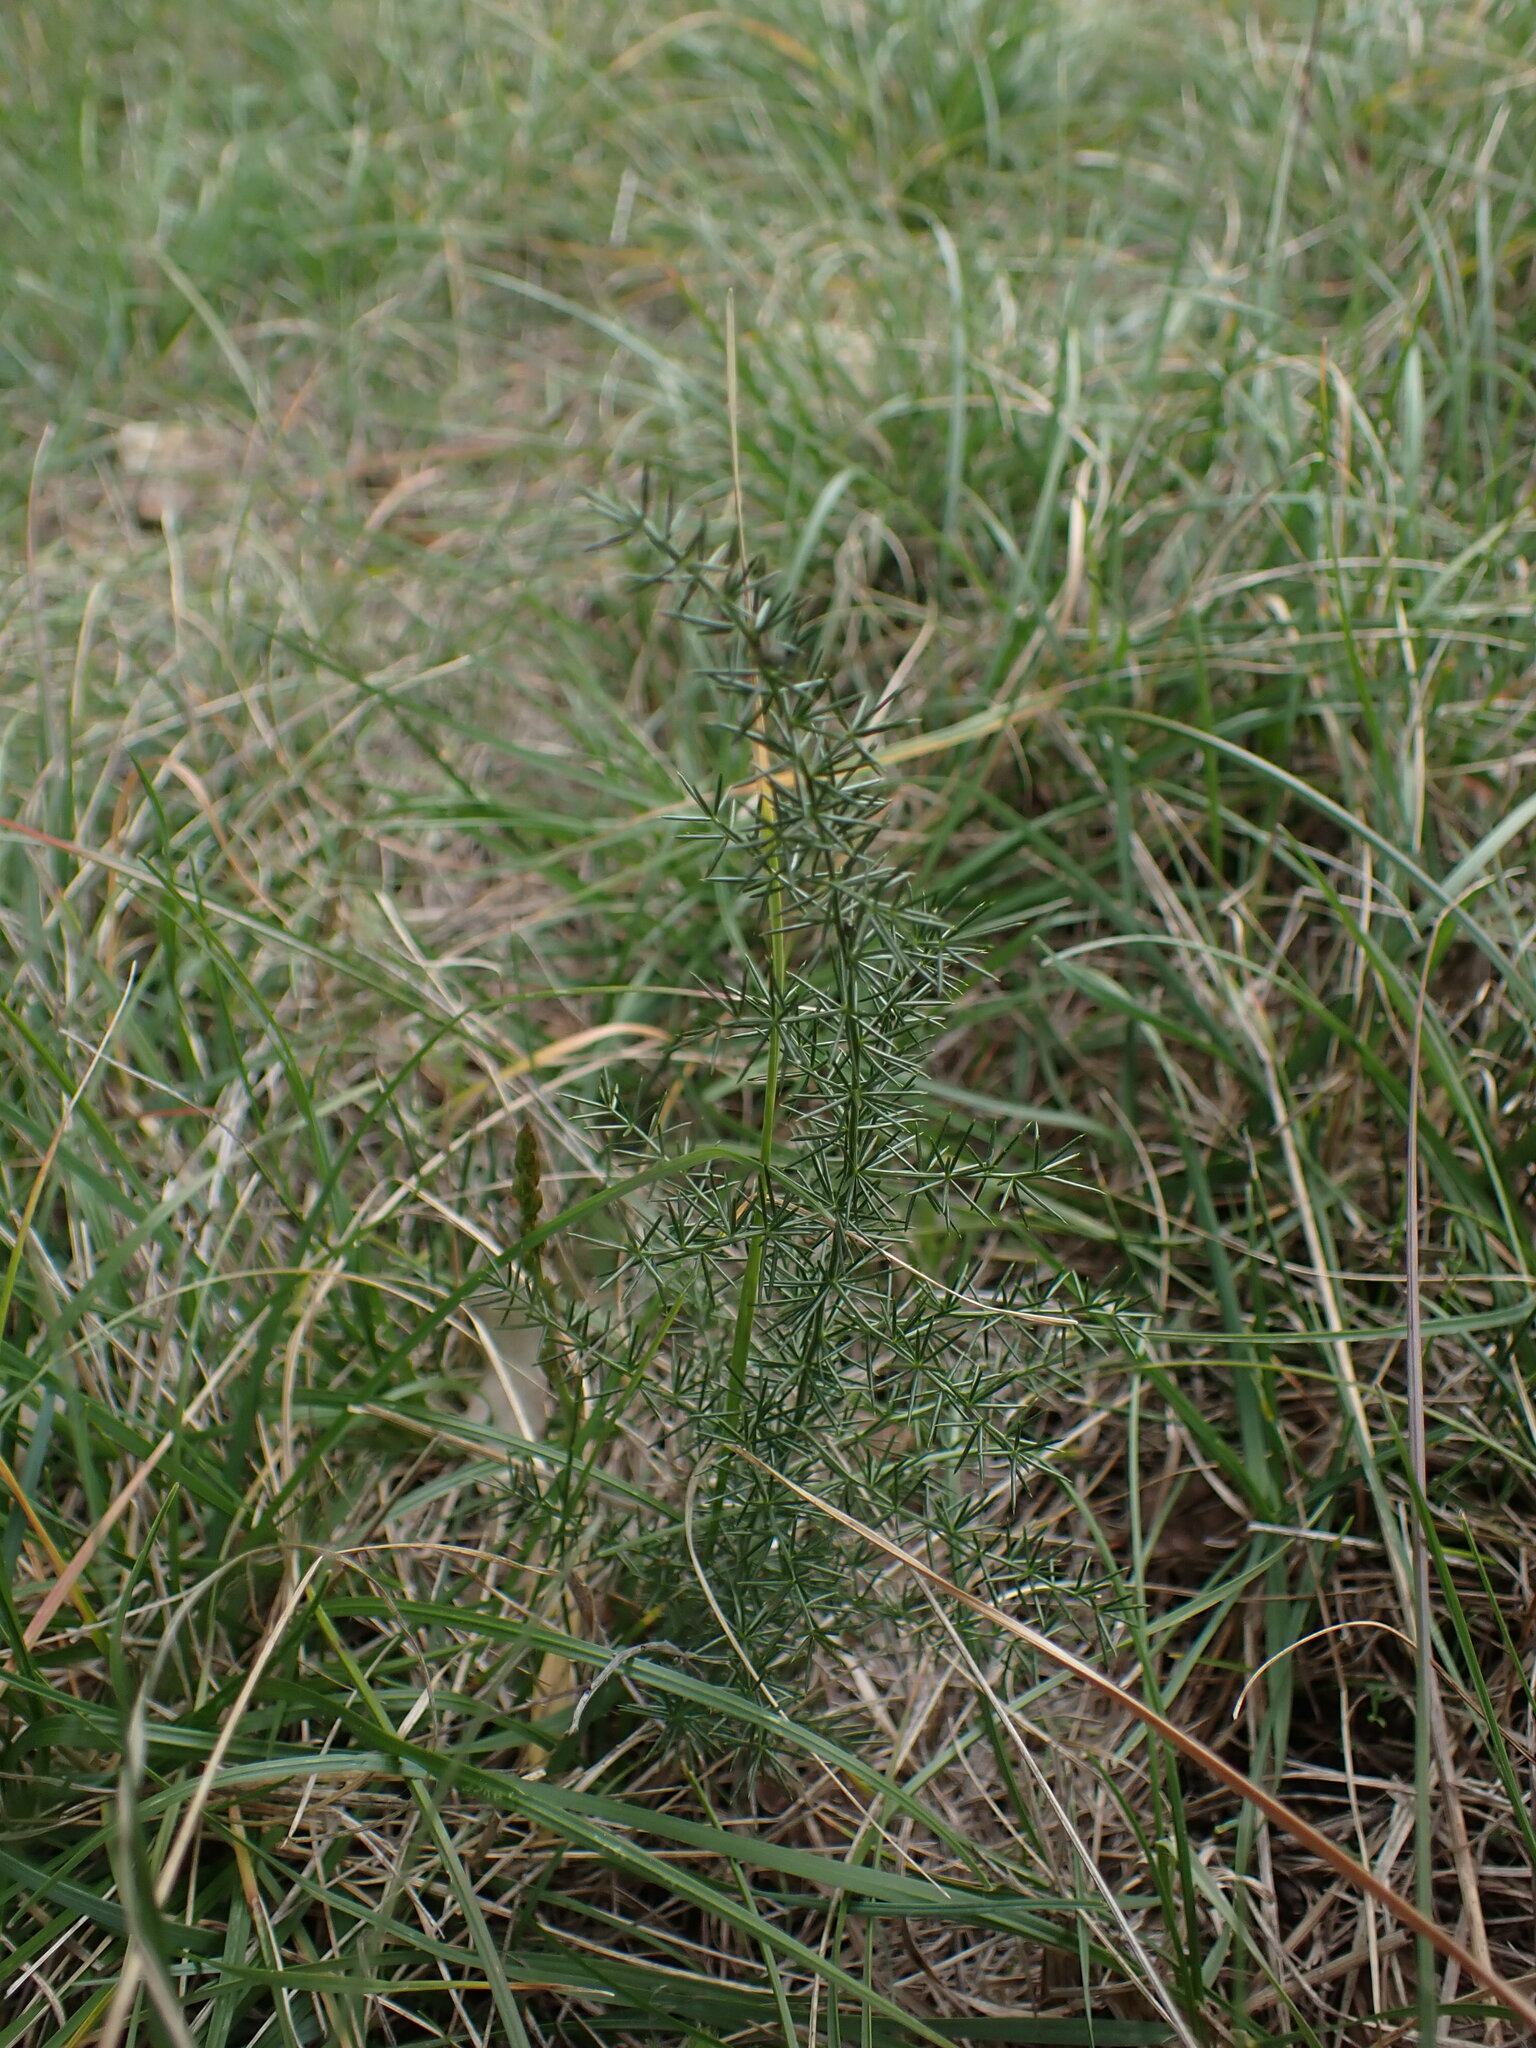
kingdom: Plantae
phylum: Tracheophyta
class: Liliopsida
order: Asparagales
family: Asparagaceae
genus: Asparagus
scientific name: Asparagus acutifolius
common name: Wild asparagus
